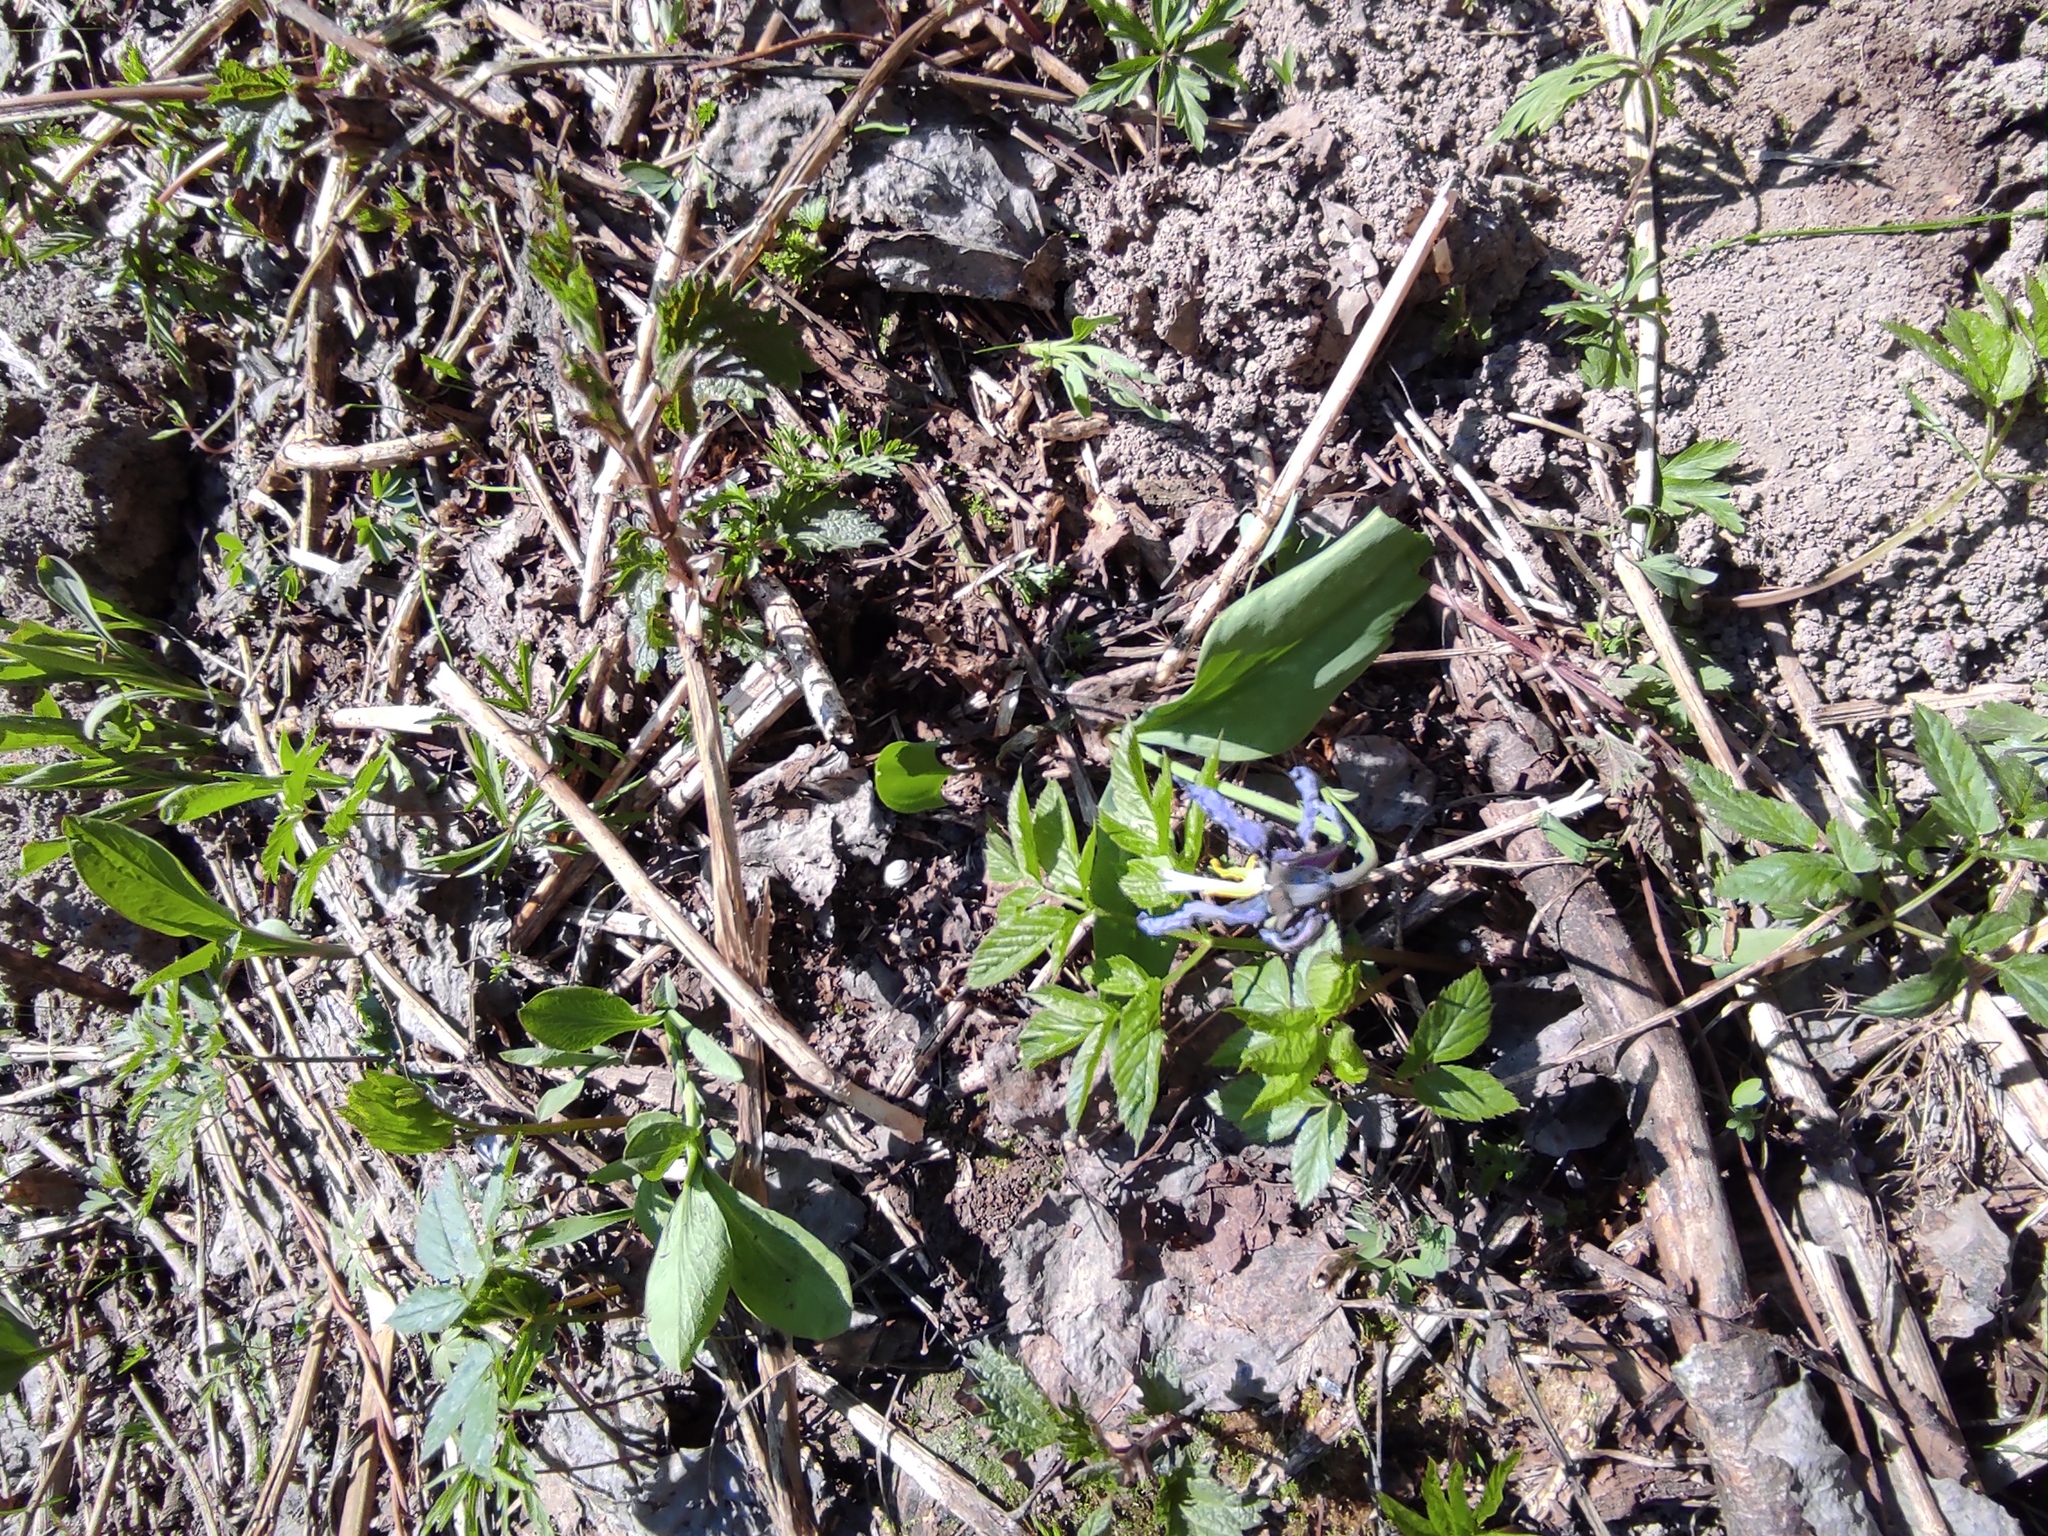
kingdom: Plantae
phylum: Tracheophyta
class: Magnoliopsida
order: Apiales
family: Apiaceae
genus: Aegopodium
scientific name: Aegopodium podagraria
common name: Ground-elder
